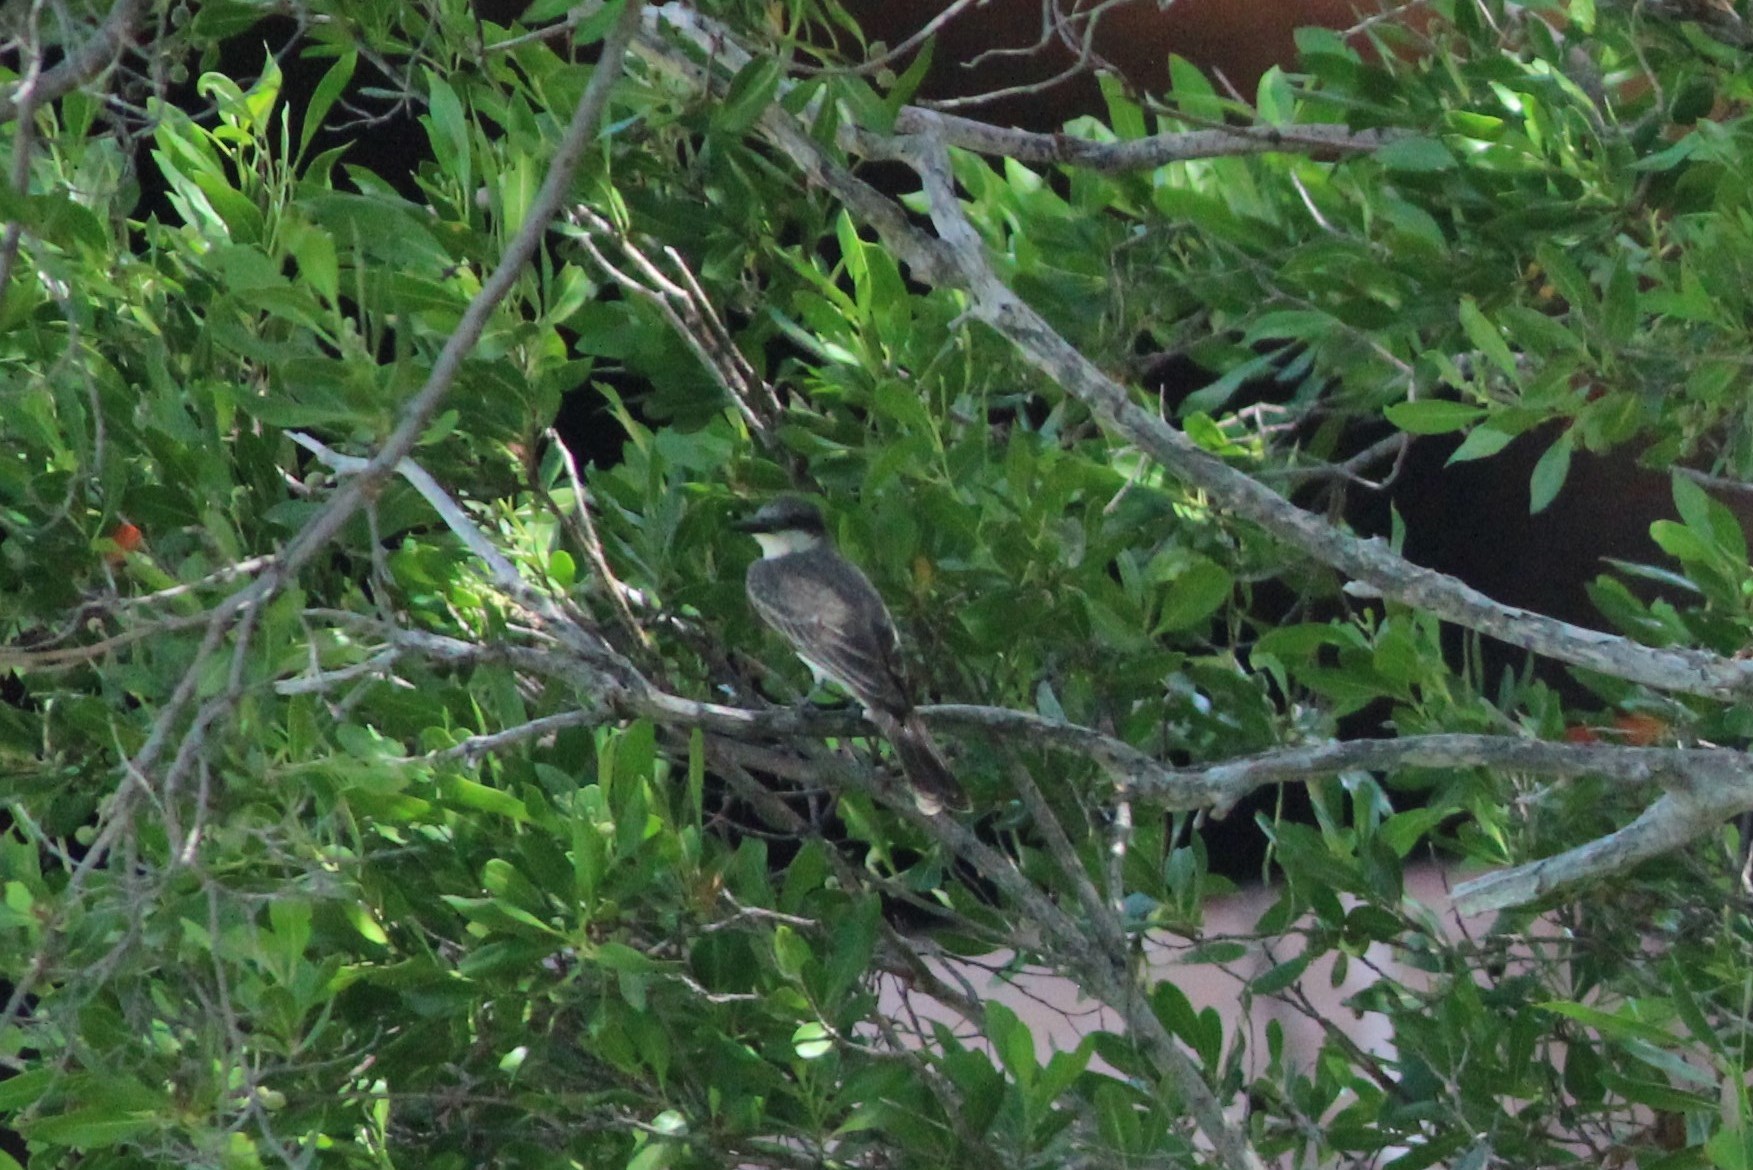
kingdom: Animalia
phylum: Chordata
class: Aves
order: Passeriformes
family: Tyrannidae
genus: Tyrannus
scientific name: Tyrannus dominicensis
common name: Gray kingbird
